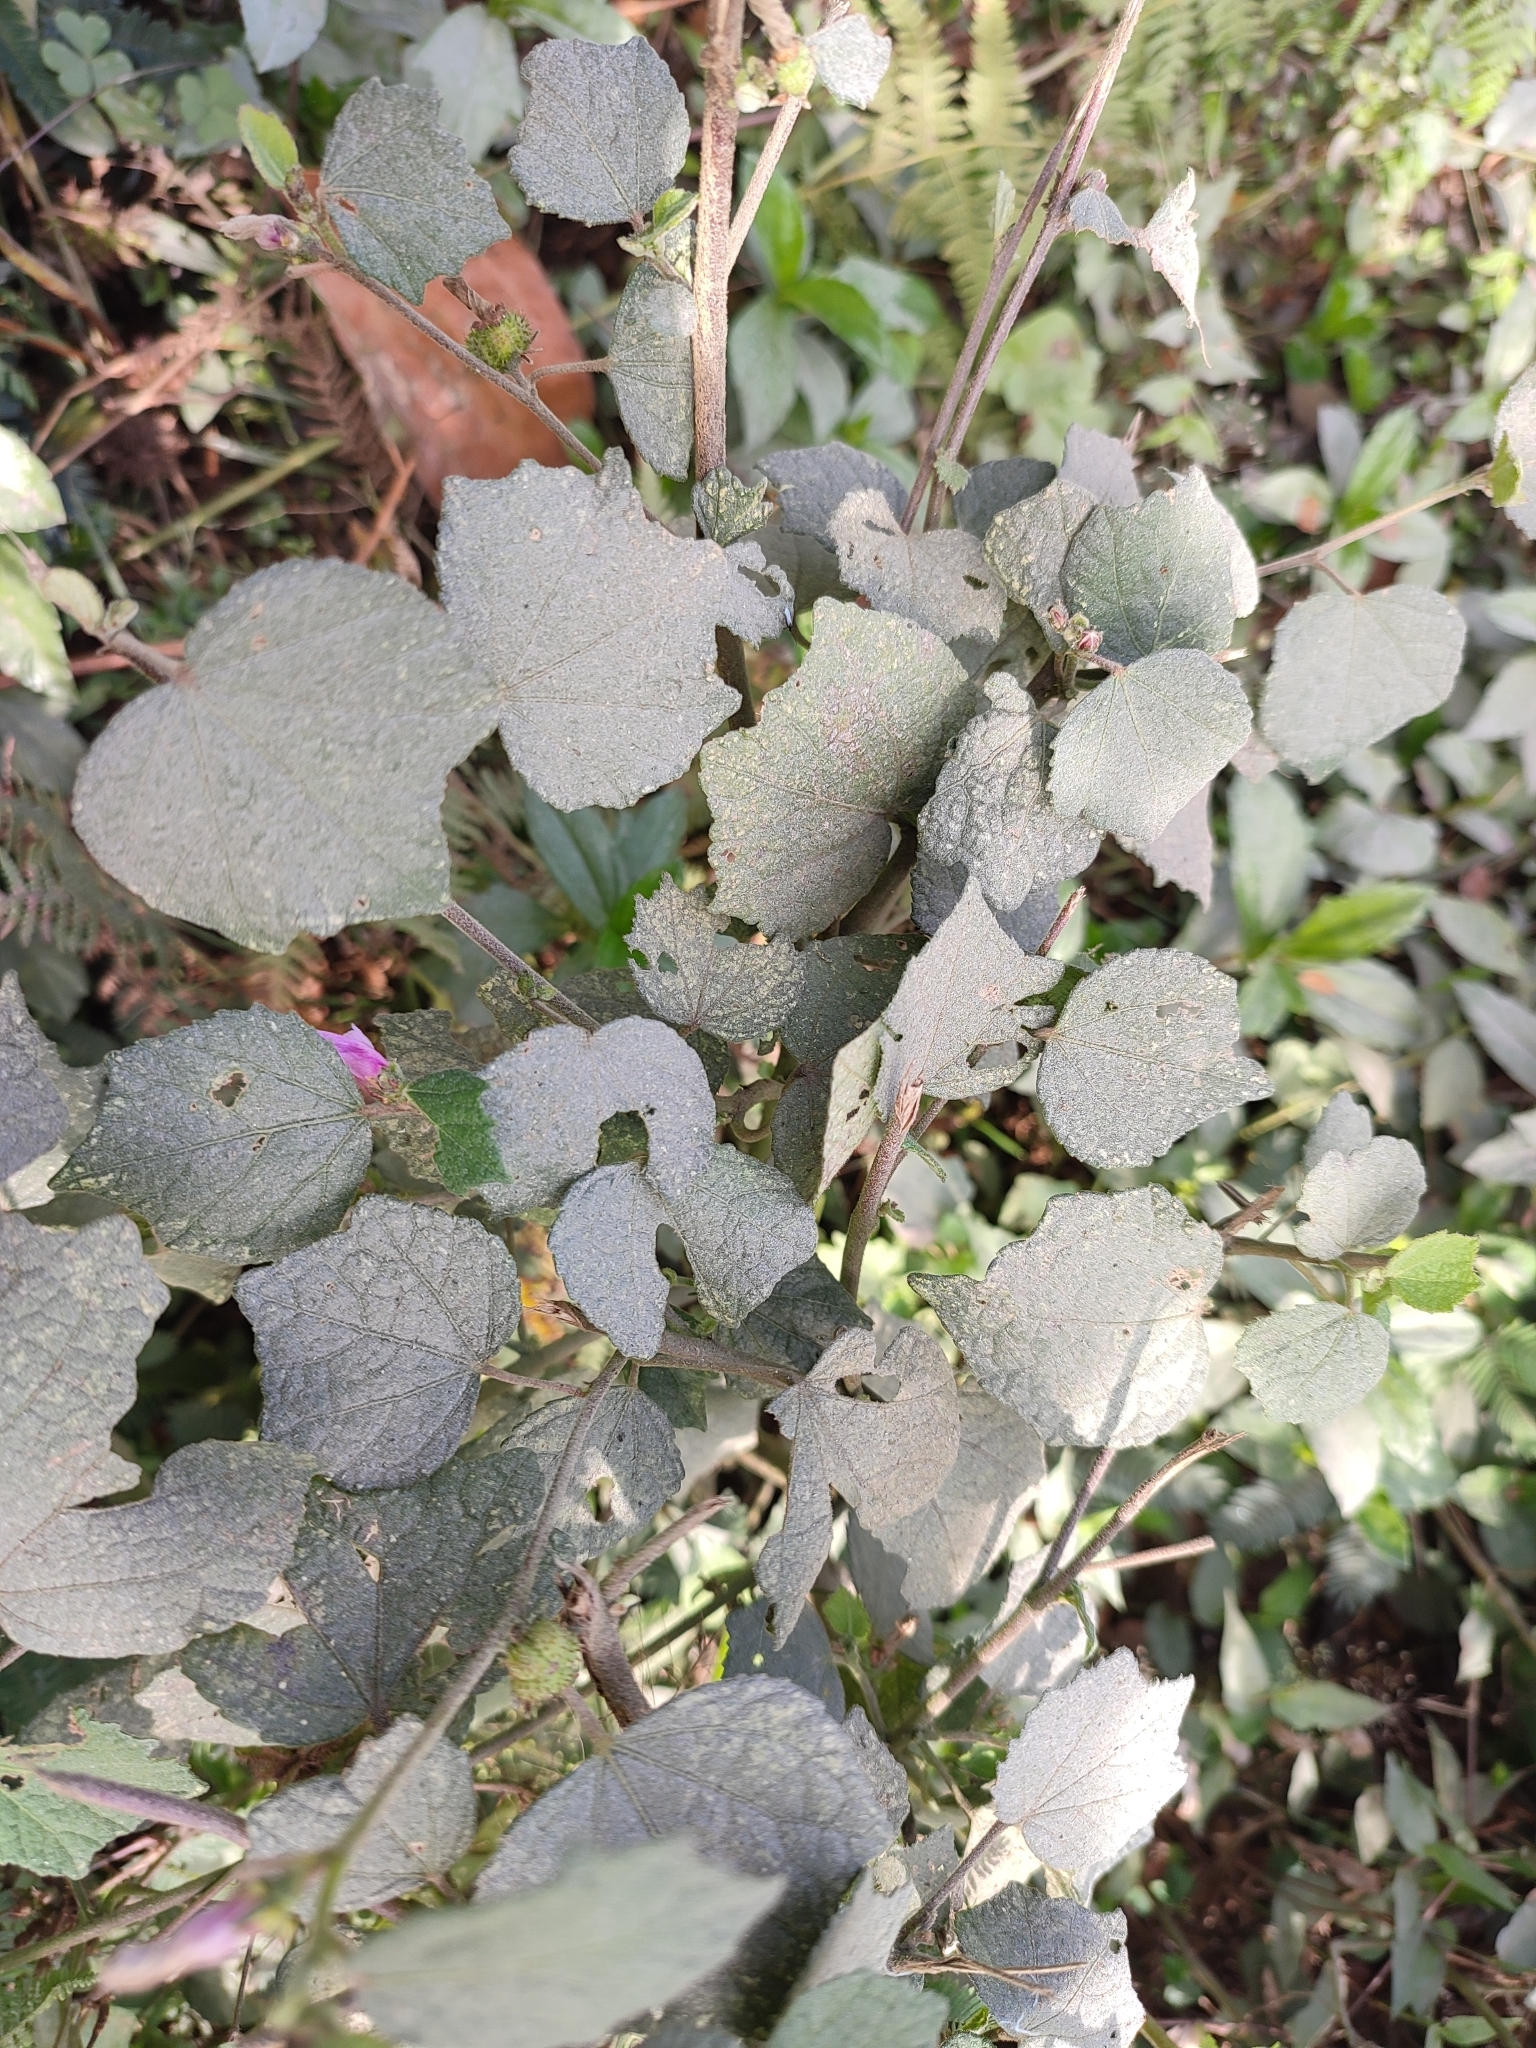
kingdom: Plantae
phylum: Tracheophyta
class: Magnoliopsida
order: Malvales
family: Malvaceae
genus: Urena
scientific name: Urena lobata
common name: Caesarweed
